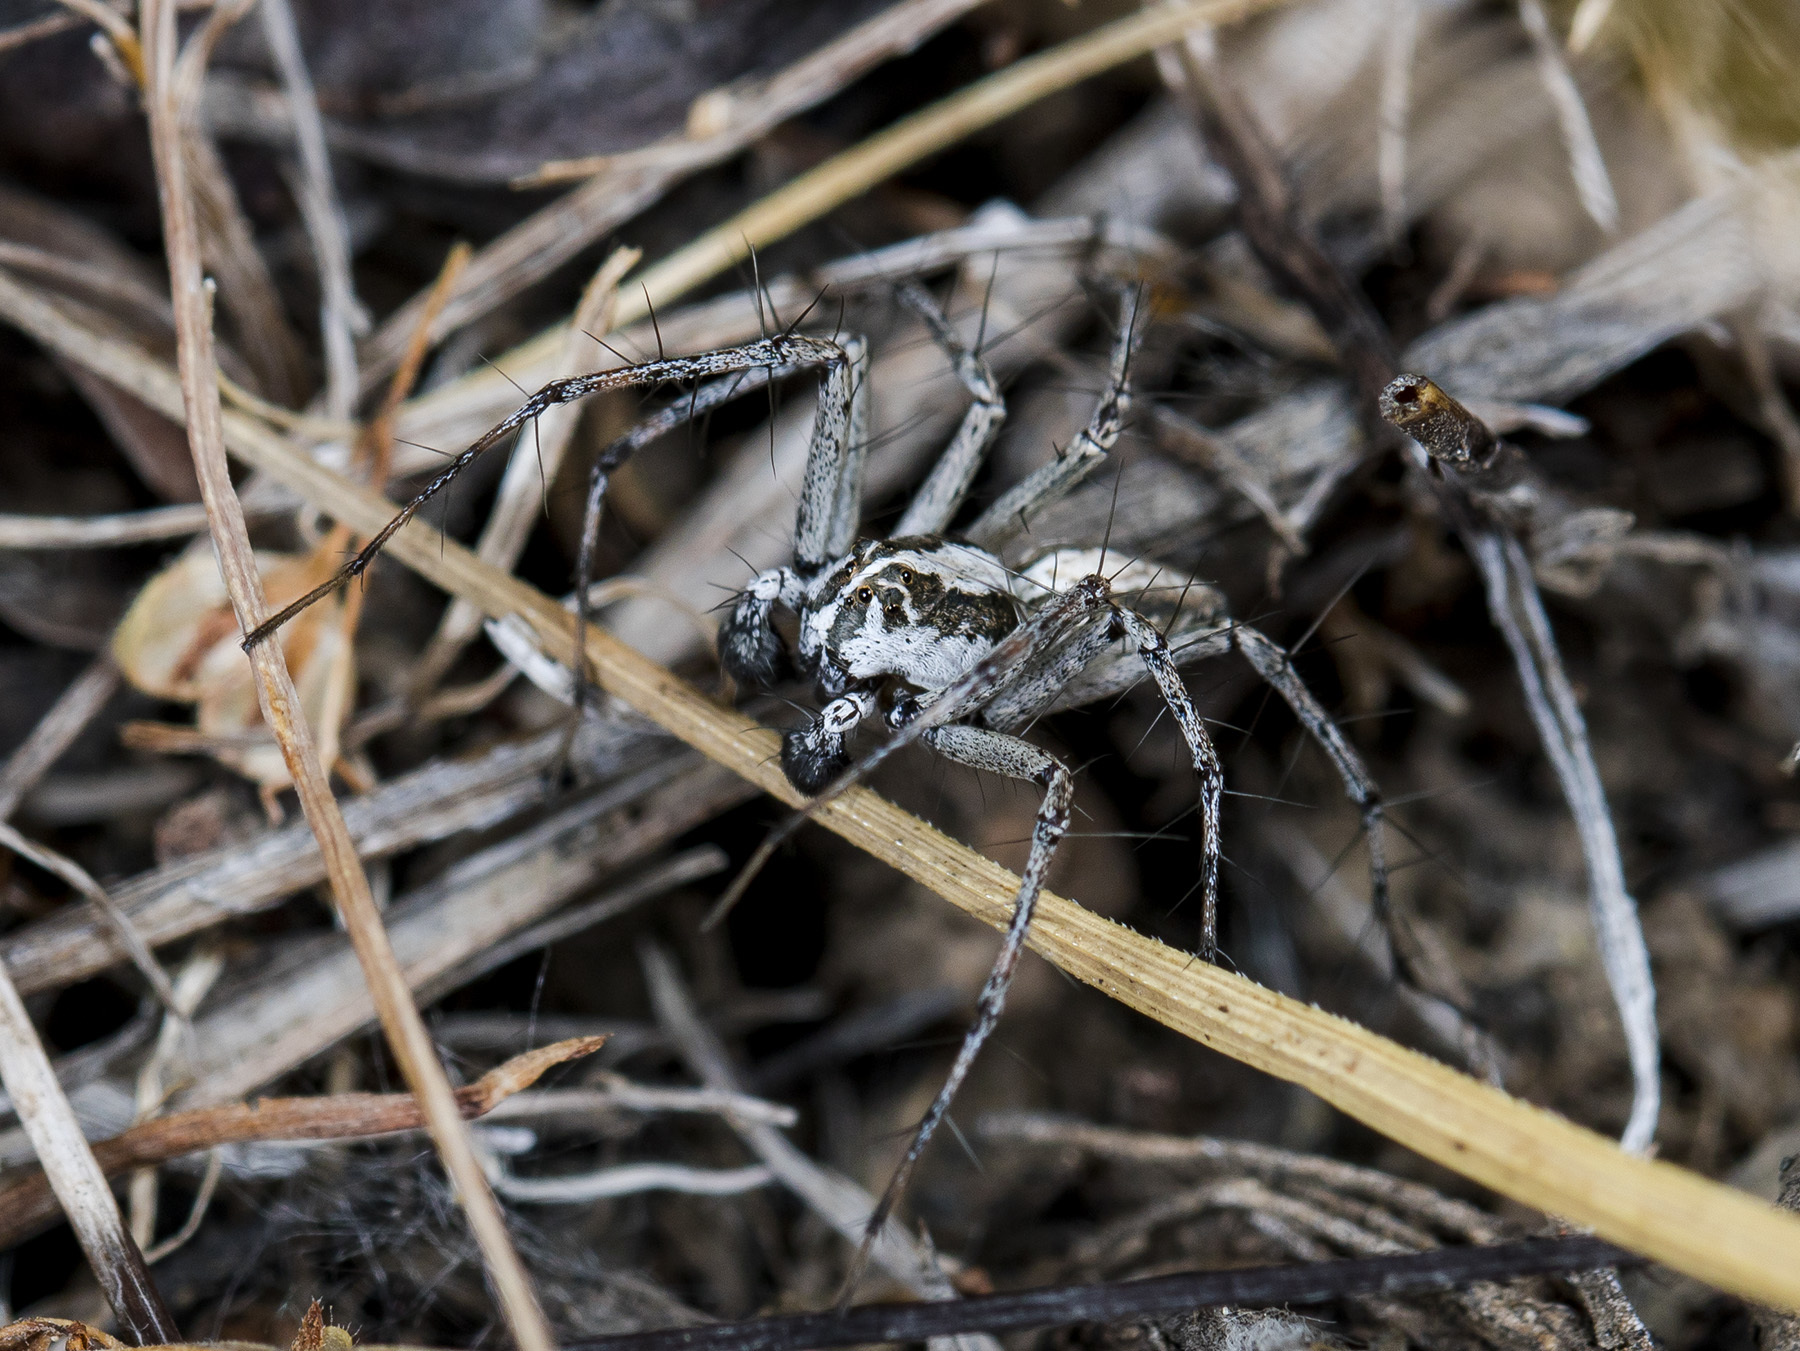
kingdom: Animalia
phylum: Arthropoda
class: Arachnida
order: Araneae
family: Oxyopidae
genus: Oxyopes
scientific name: Oxyopes globifer
